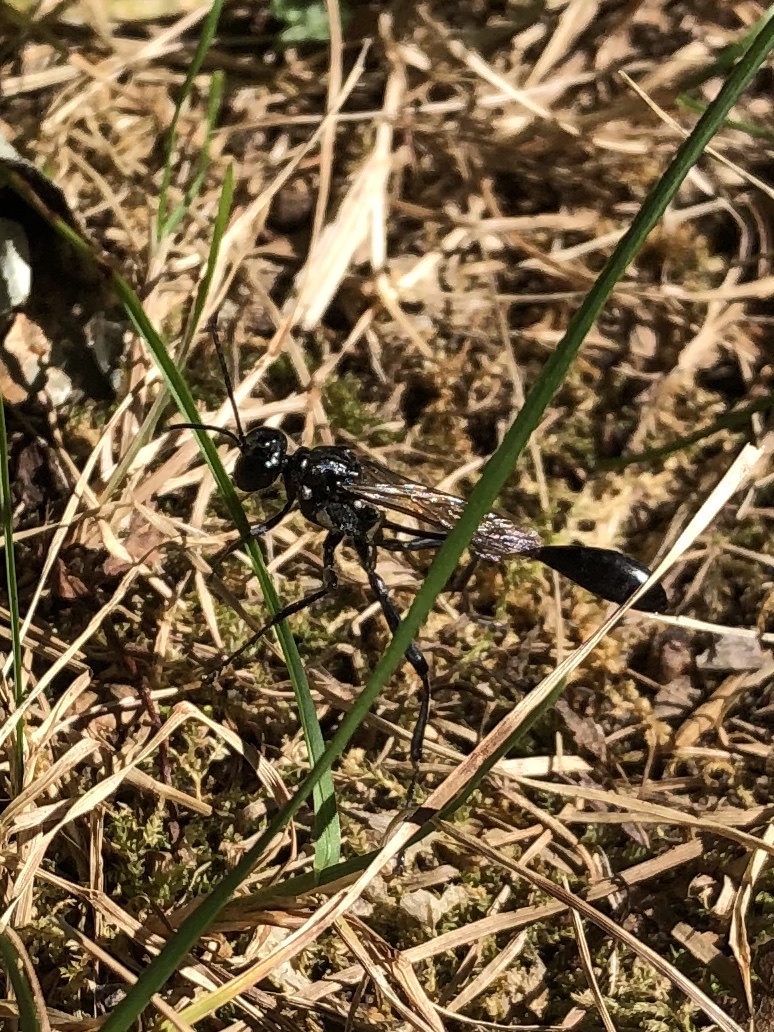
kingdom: Animalia
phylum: Arthropoda
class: Insecta
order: Hymenoptera
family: Sphecidae
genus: Eremnophila
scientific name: Eremnophila aureonotata
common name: Gold-marked thread-waisted wasp
